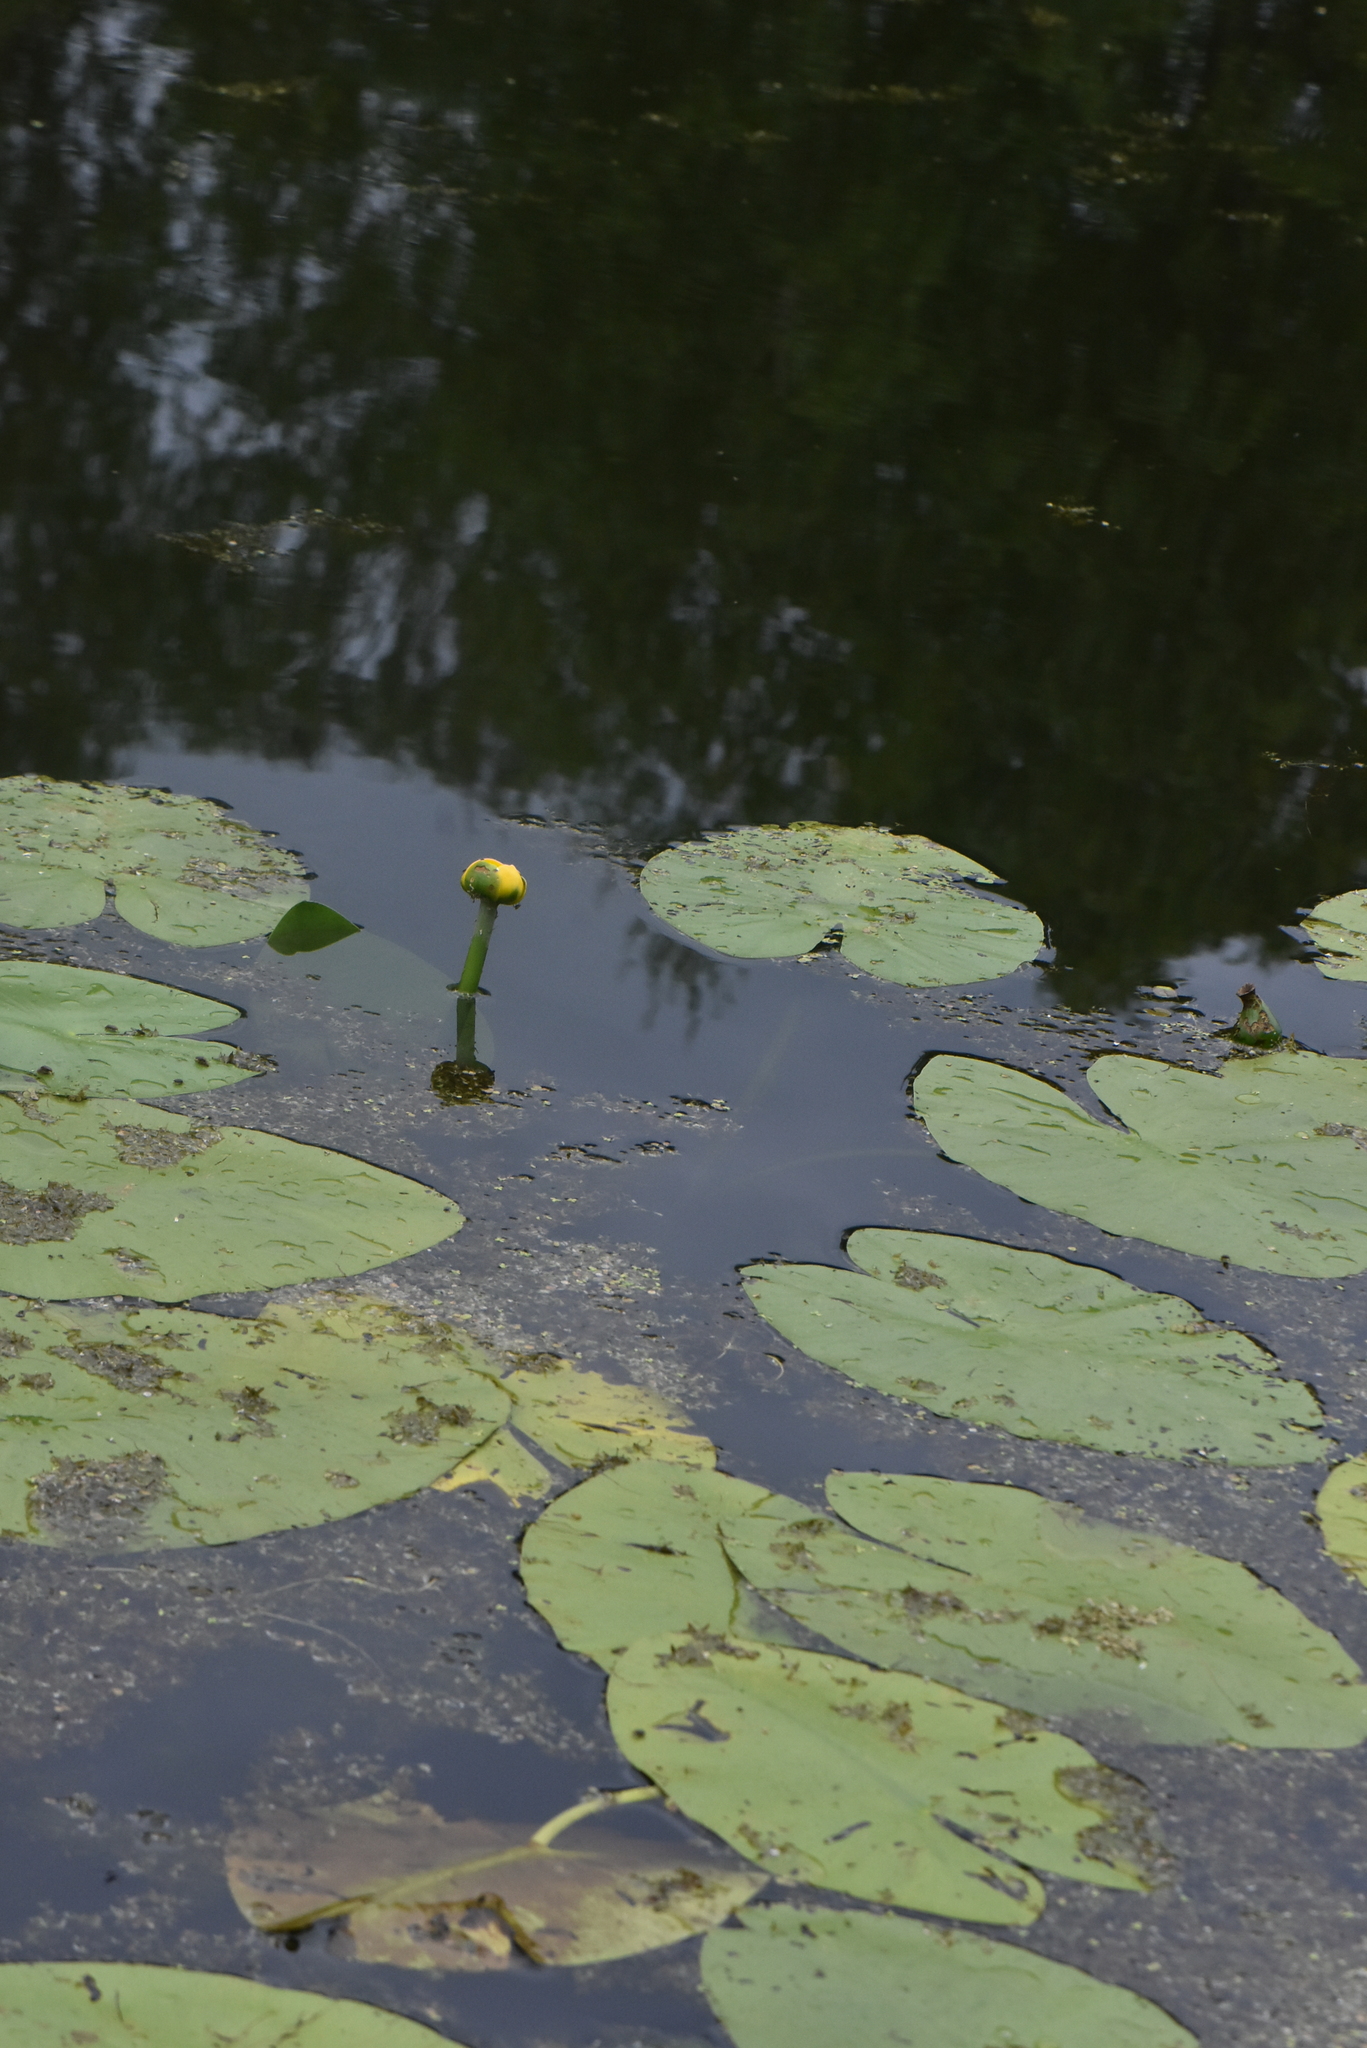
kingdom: Plantae
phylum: Tracheophyta
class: Magnoliopsida
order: Nymphaeales
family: Nymphaeaceae
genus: Nuphar
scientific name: Nuphar lutea
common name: Yellow water-lily
